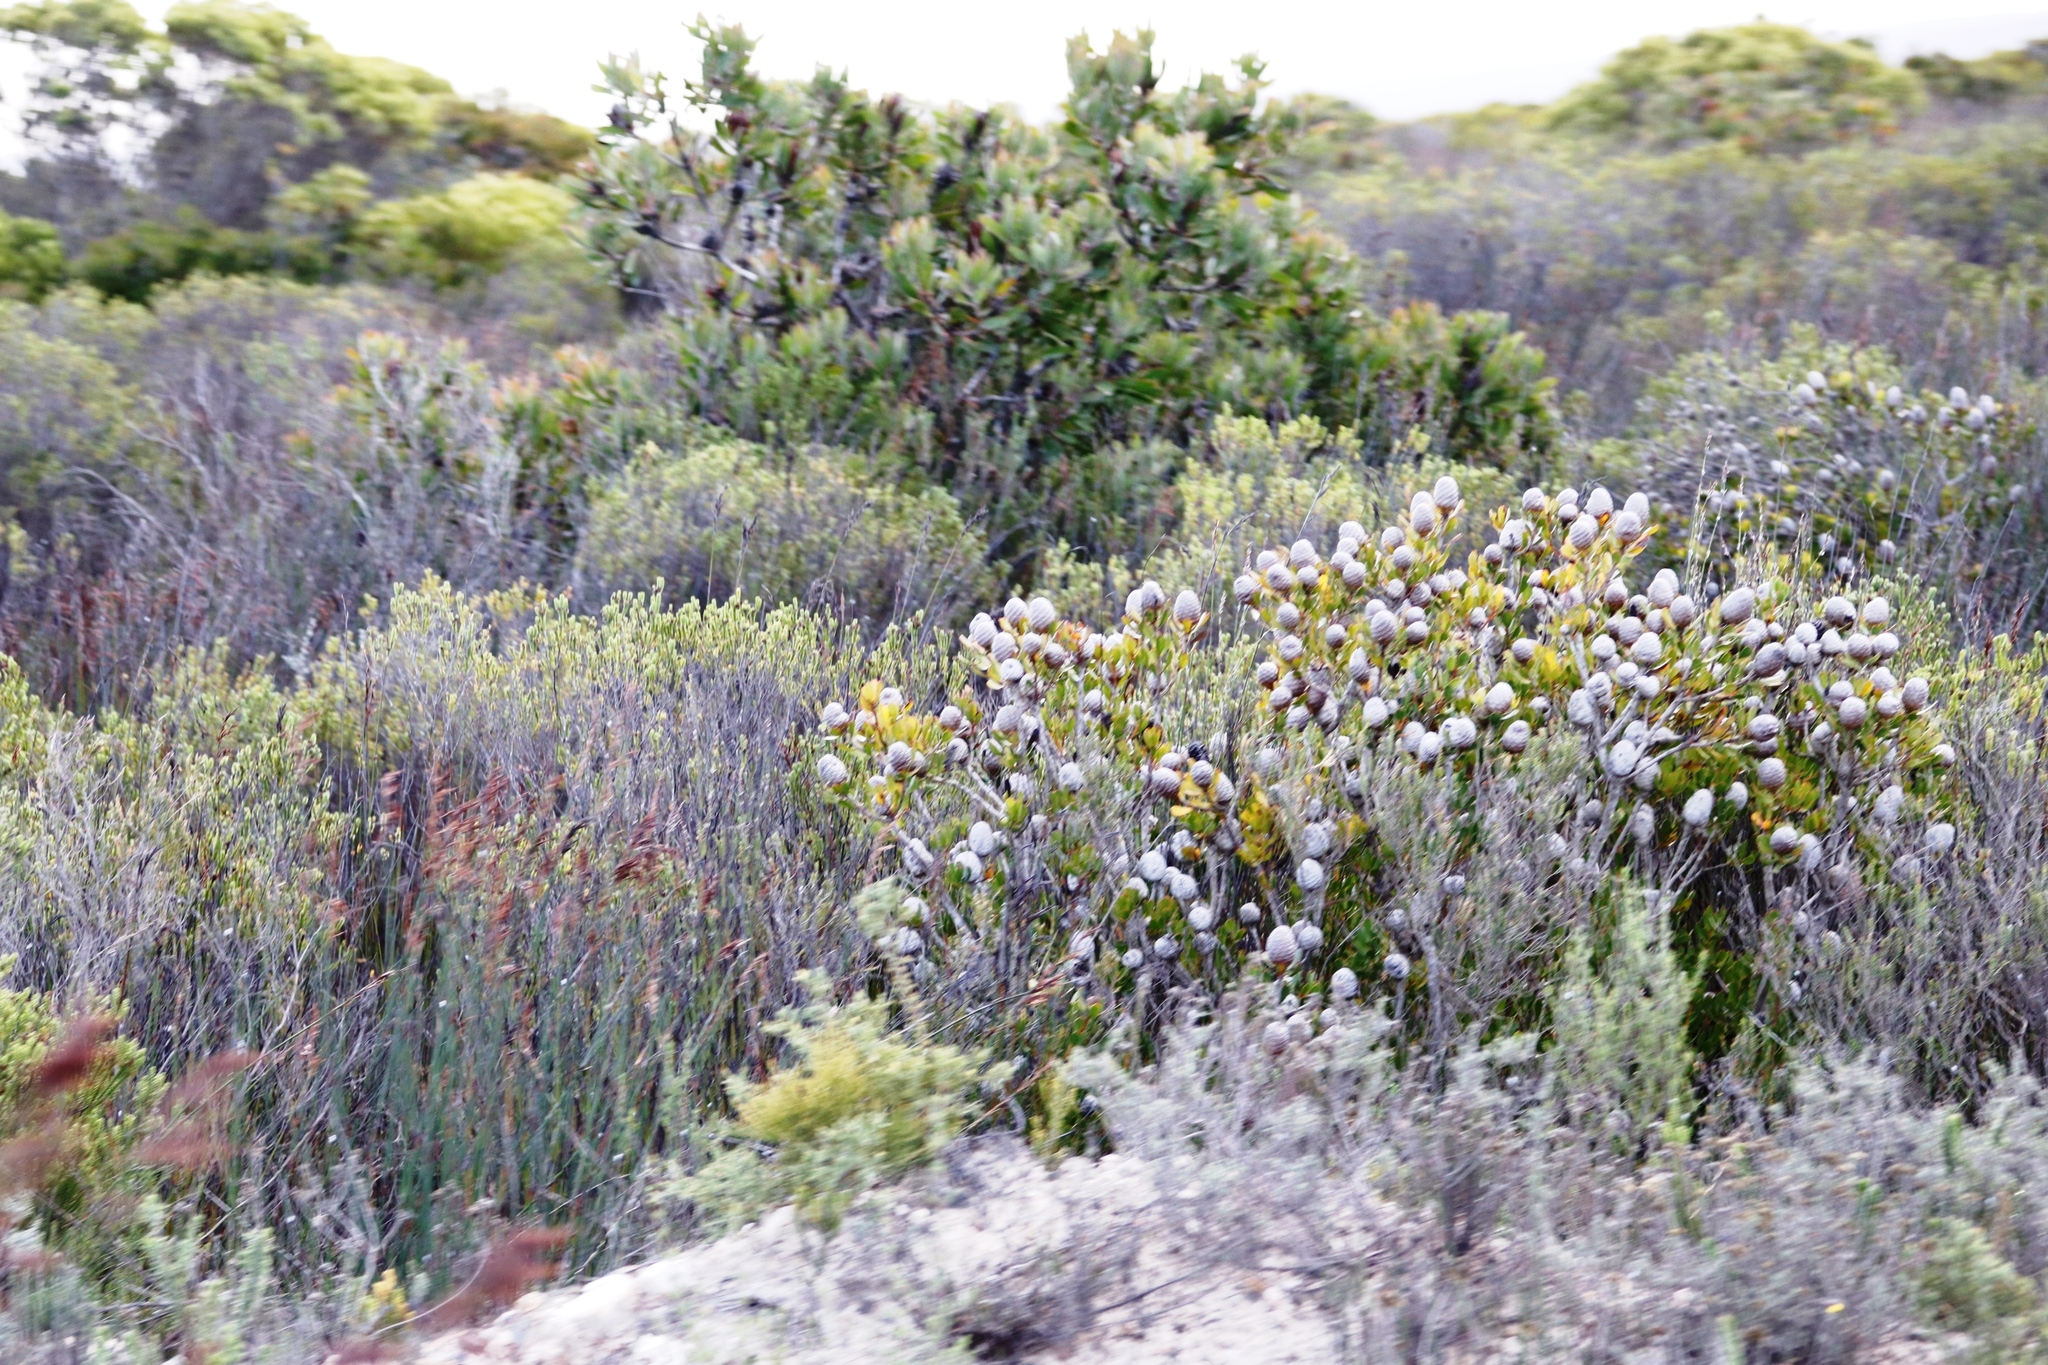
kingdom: Plantae
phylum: Tracheophyta
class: Magnoliopsida
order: Proteales
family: Proteaceae
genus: Protea
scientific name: Protea obtusifolia
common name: Bredasdorp sugarbush
